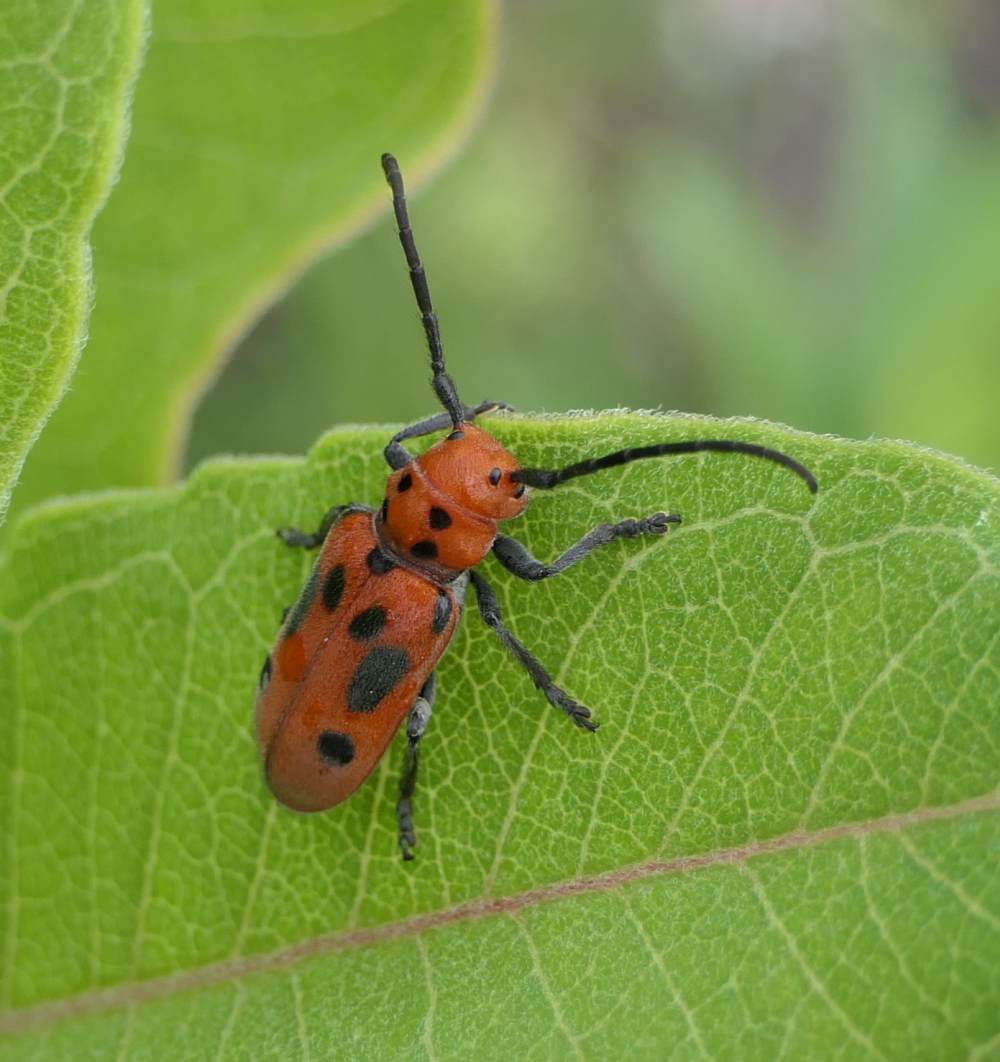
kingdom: Animalia
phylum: Arthropoda
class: Insecta
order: Coleoptera
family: Cerambycidae
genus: Tetraopes
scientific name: Tetraopes tetrophthalmus
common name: Red milkweed beetle
